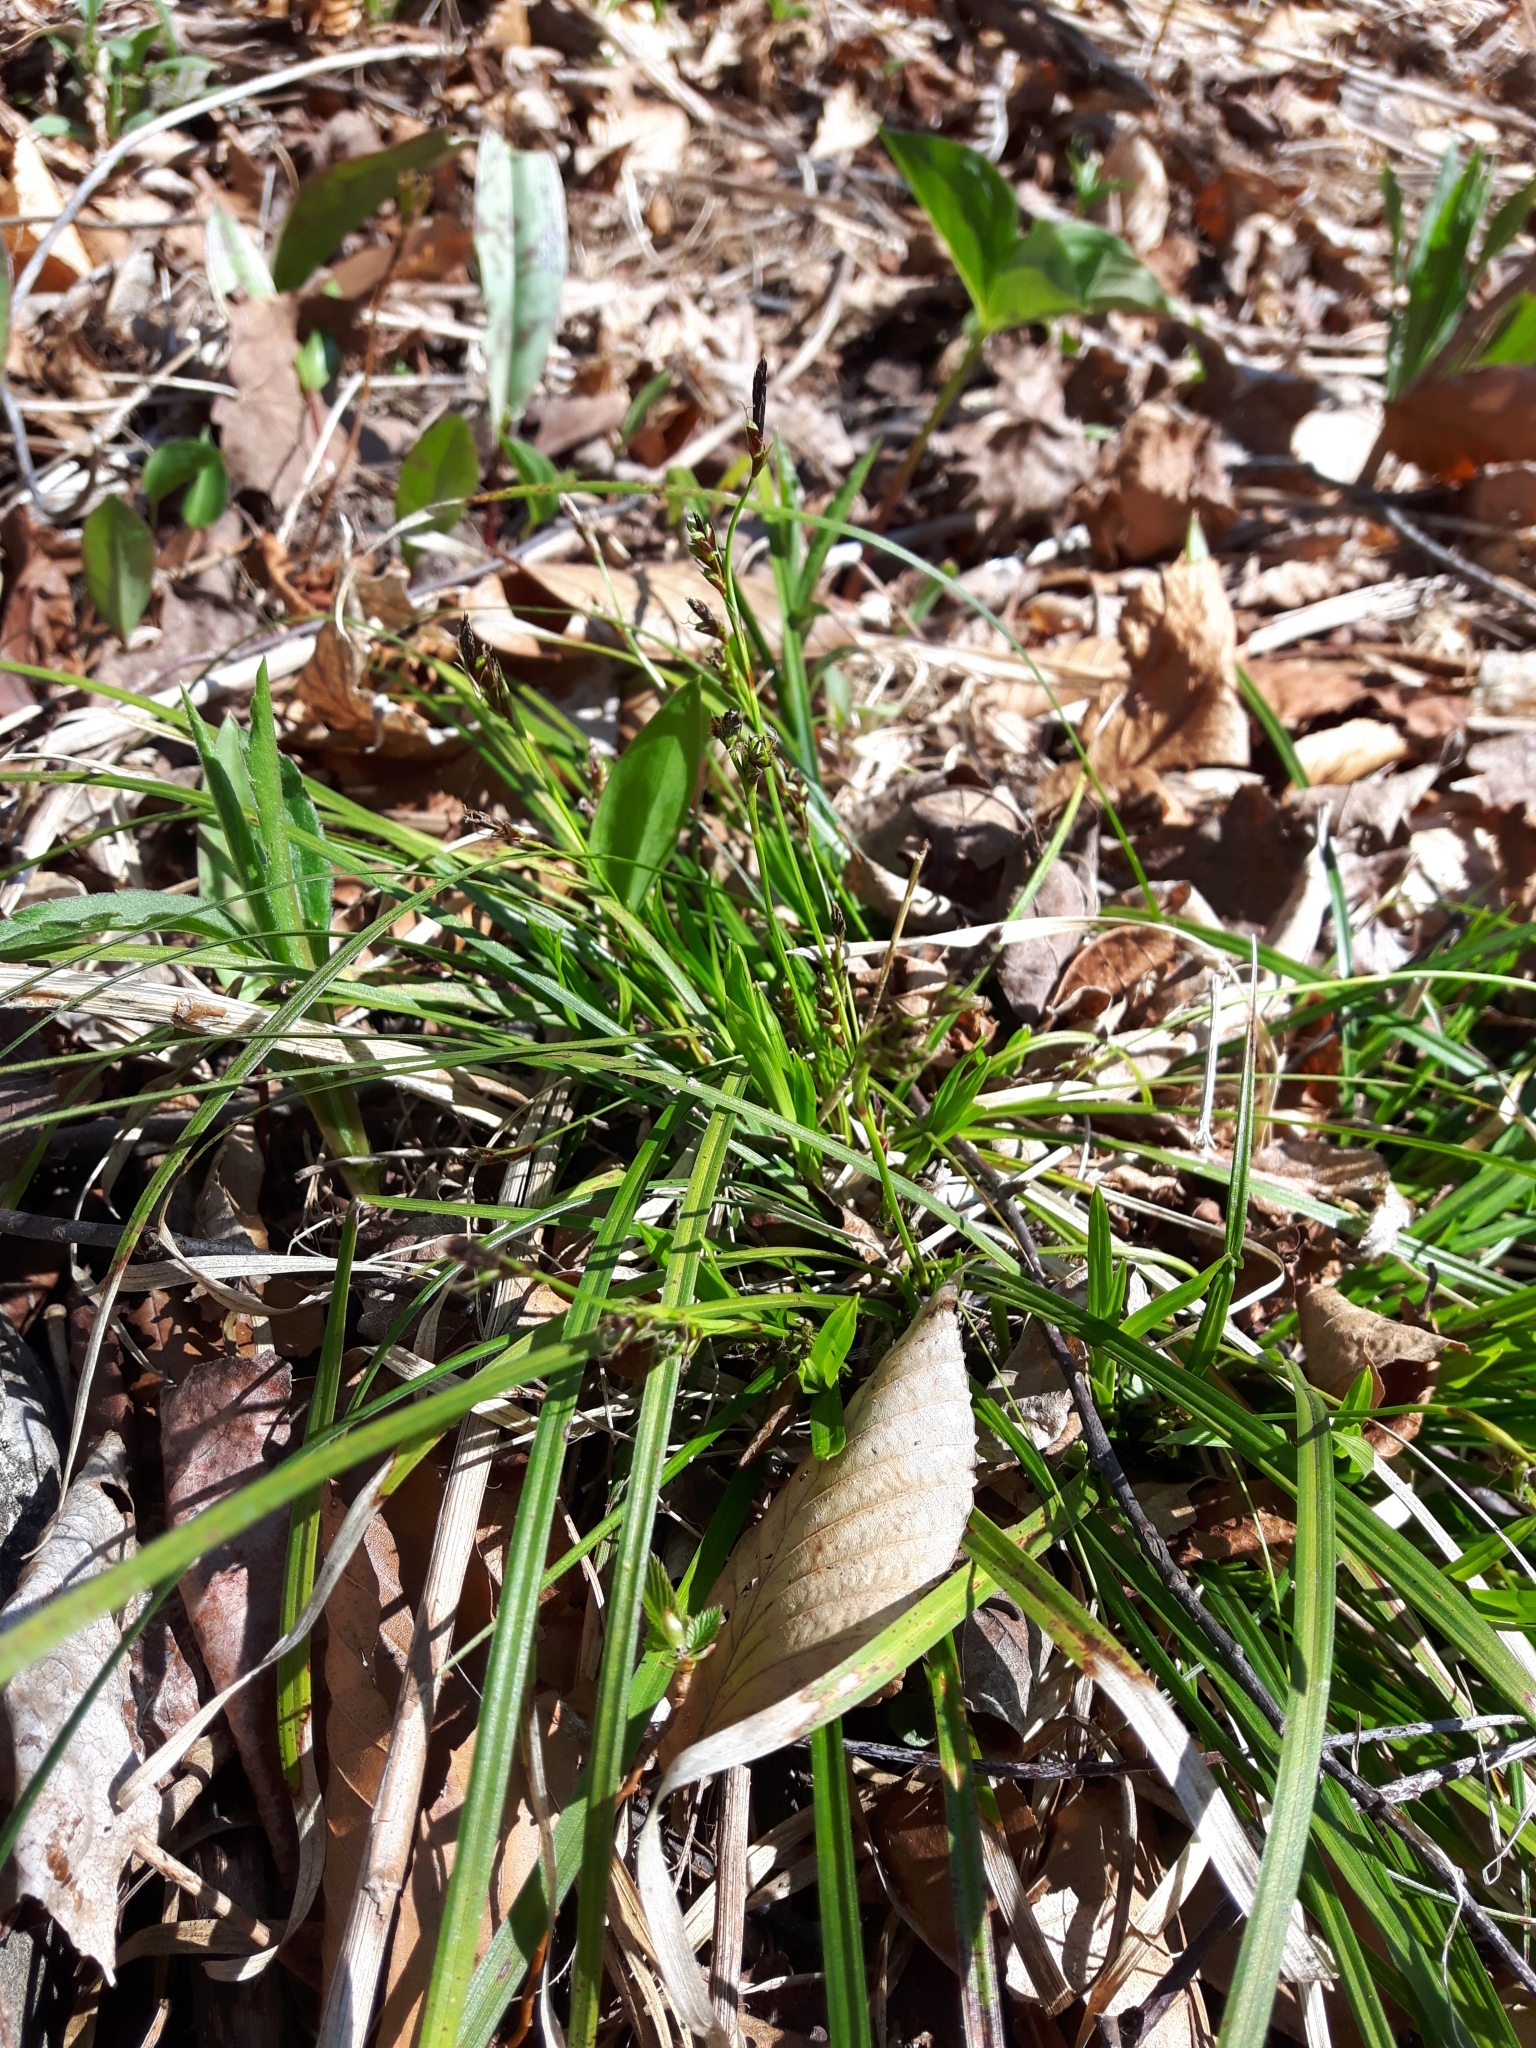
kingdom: Plantae
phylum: Tracheophyta
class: Liliopsida
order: Poales
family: Cyperaceae
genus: Carex
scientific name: Carex pedunculata
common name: Pedunculate sedge
